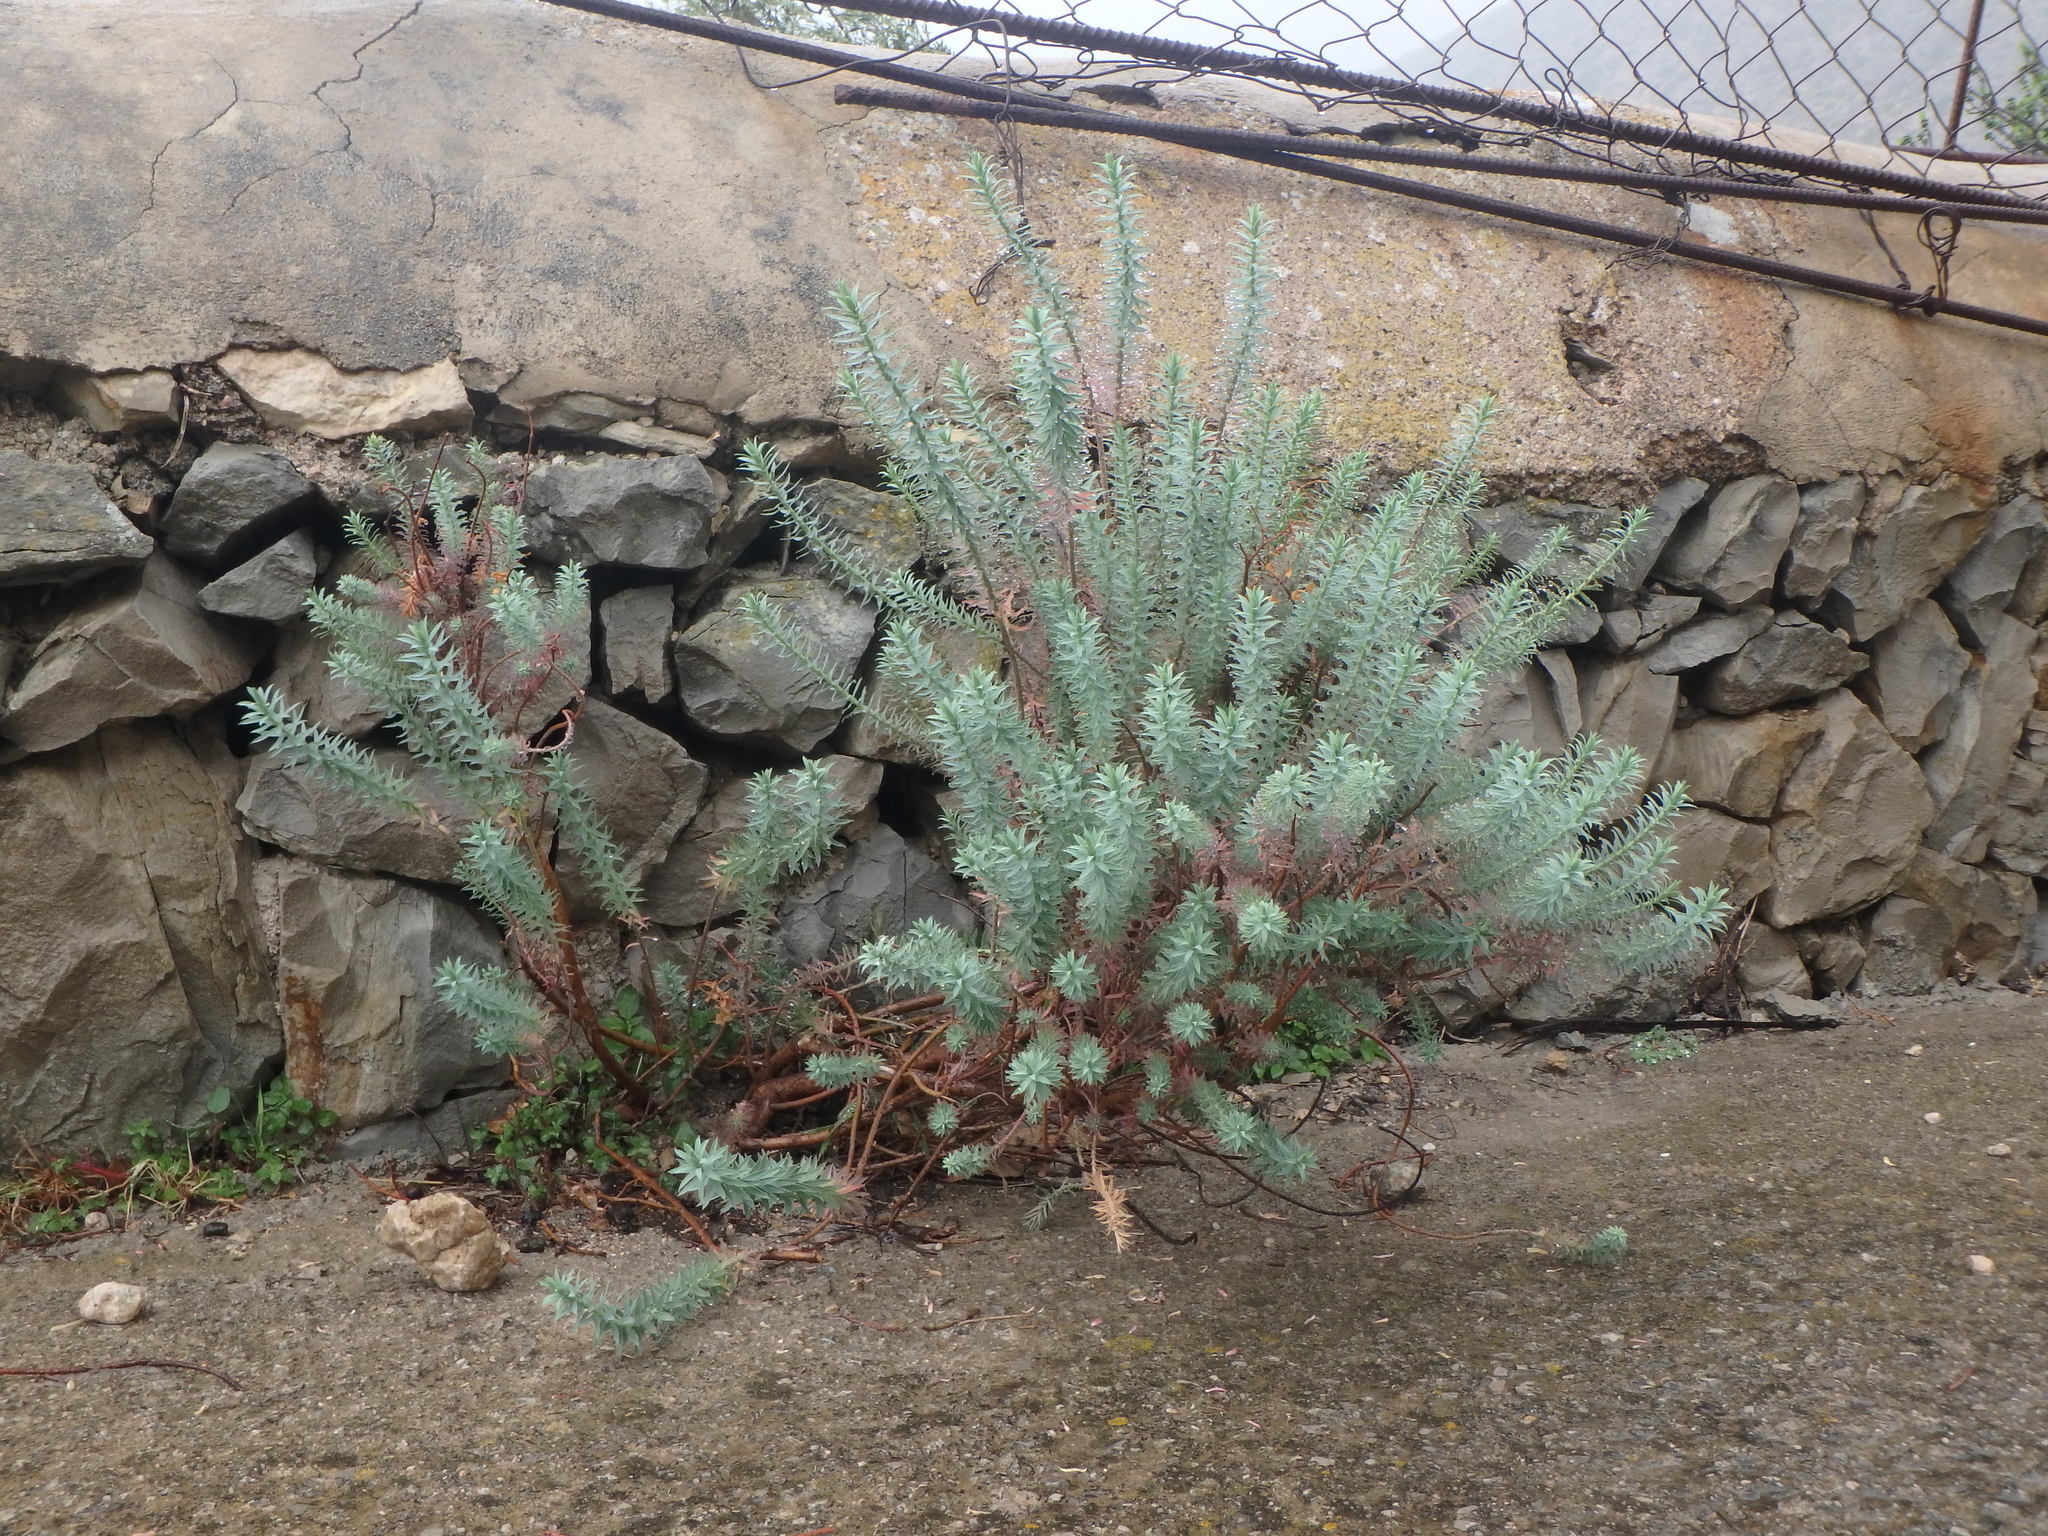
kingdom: Plantae
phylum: Tracheophyta
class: Magnoliopsida
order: Malpighiales
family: Euphorbiaceae
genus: Euphorbia
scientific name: Euphorbia pithyusa
